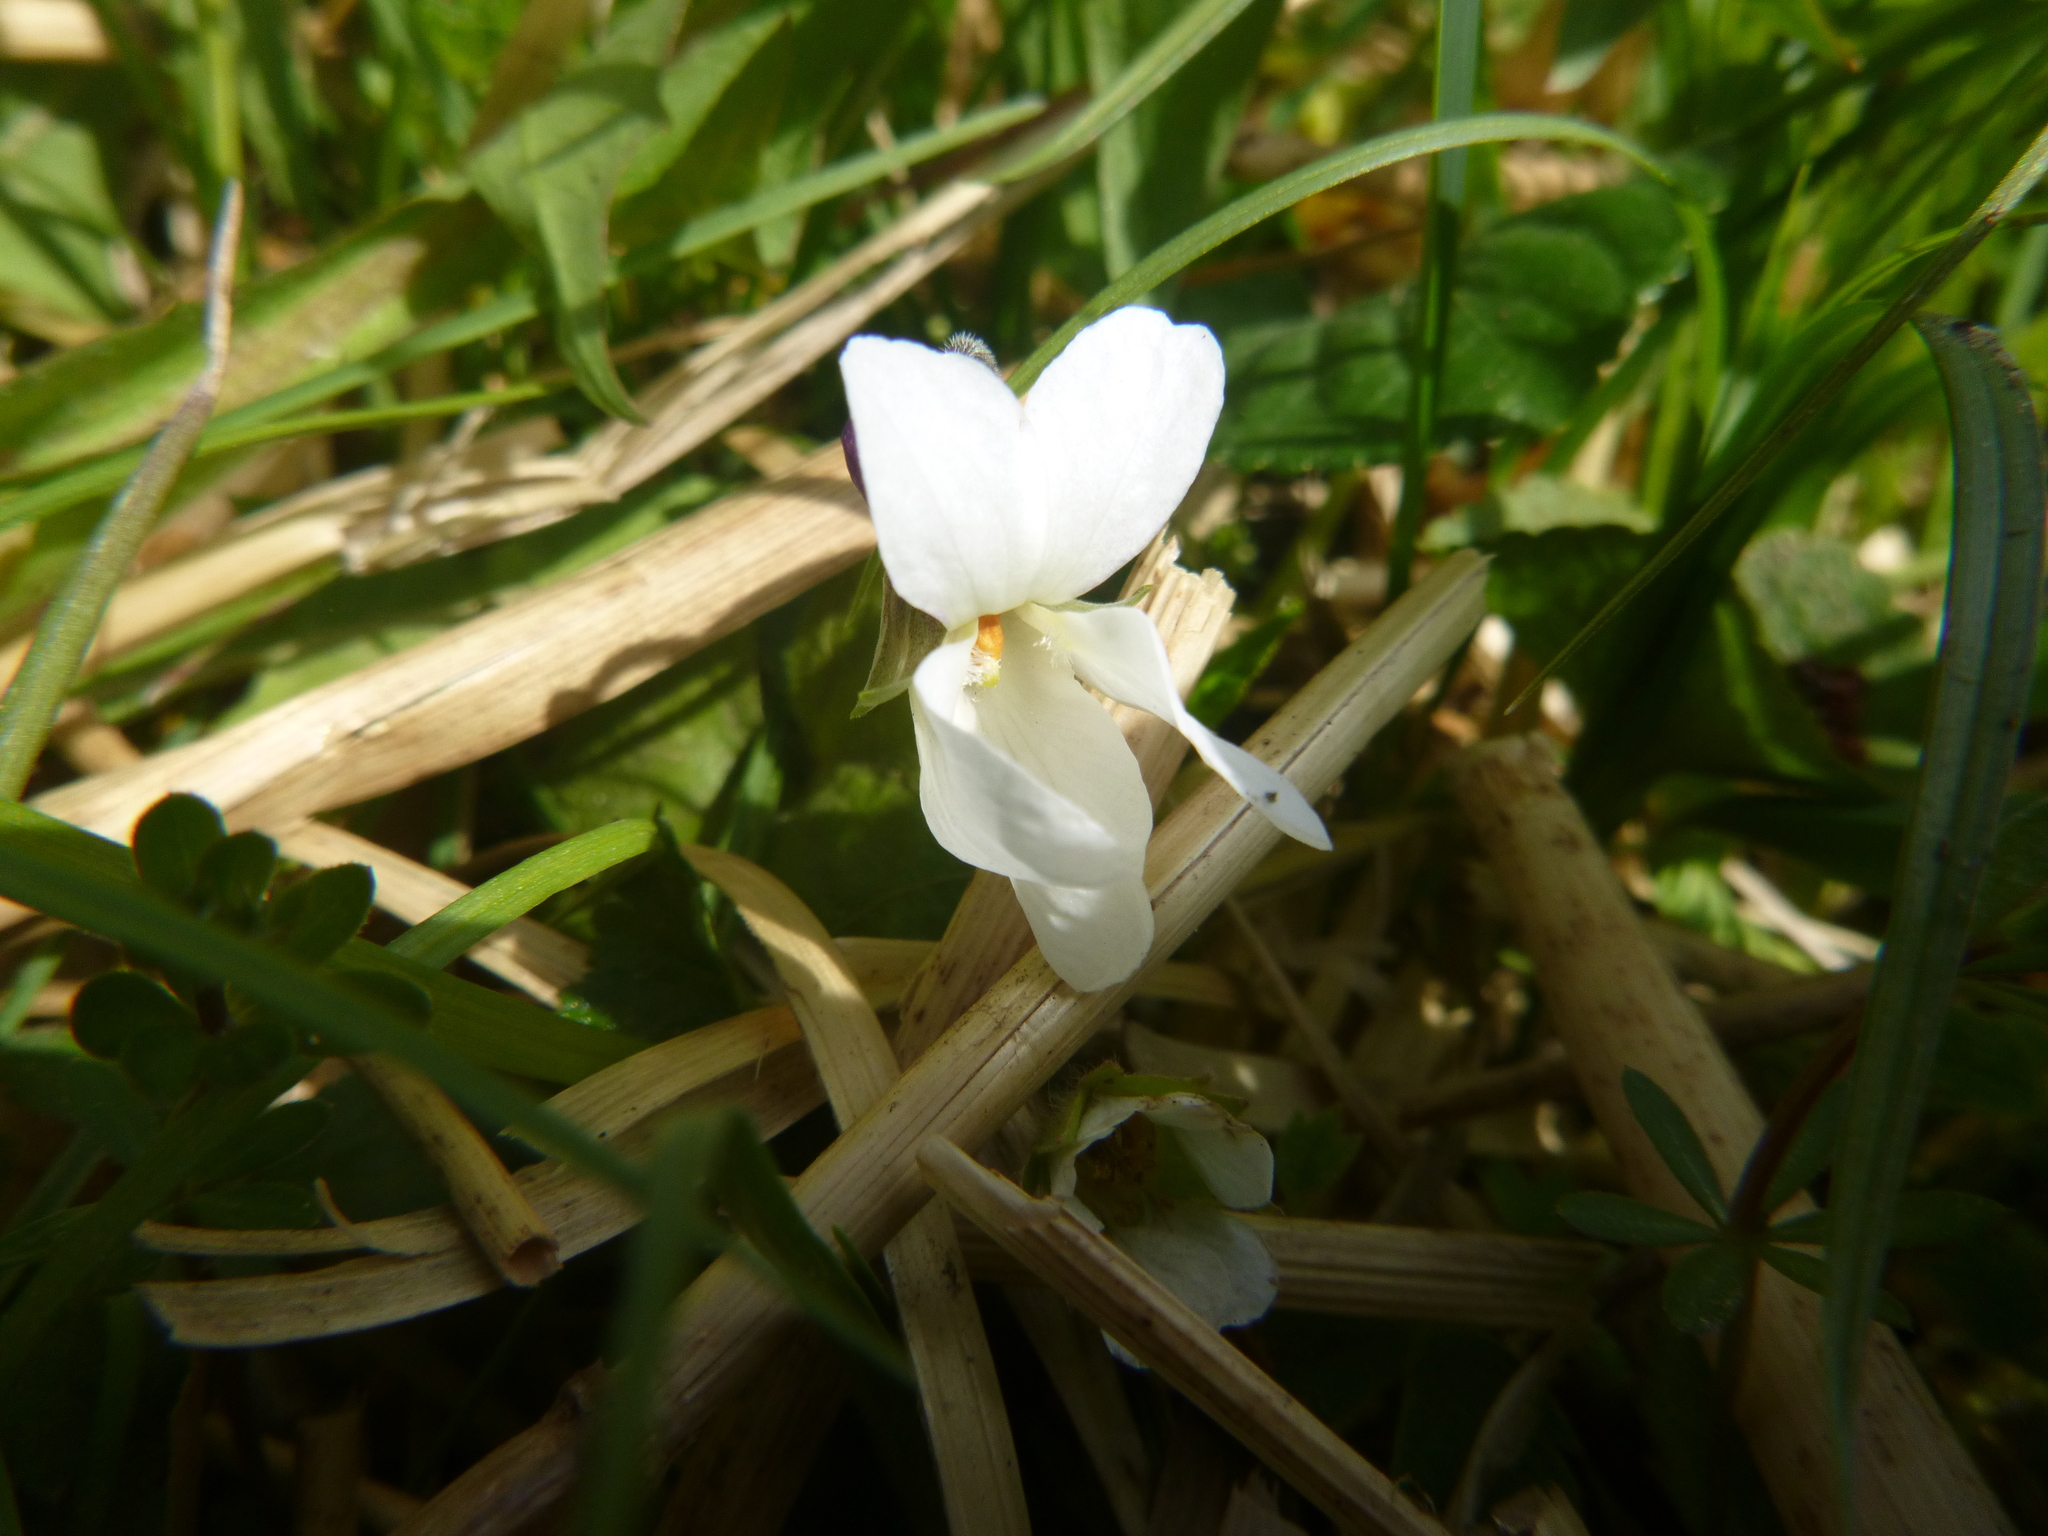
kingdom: Plantae
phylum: Tracheophyta
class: Magnoliopsida
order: Malpighiales
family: Violaceae
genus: Viola
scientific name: Viola odorata
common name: Sweet violet
